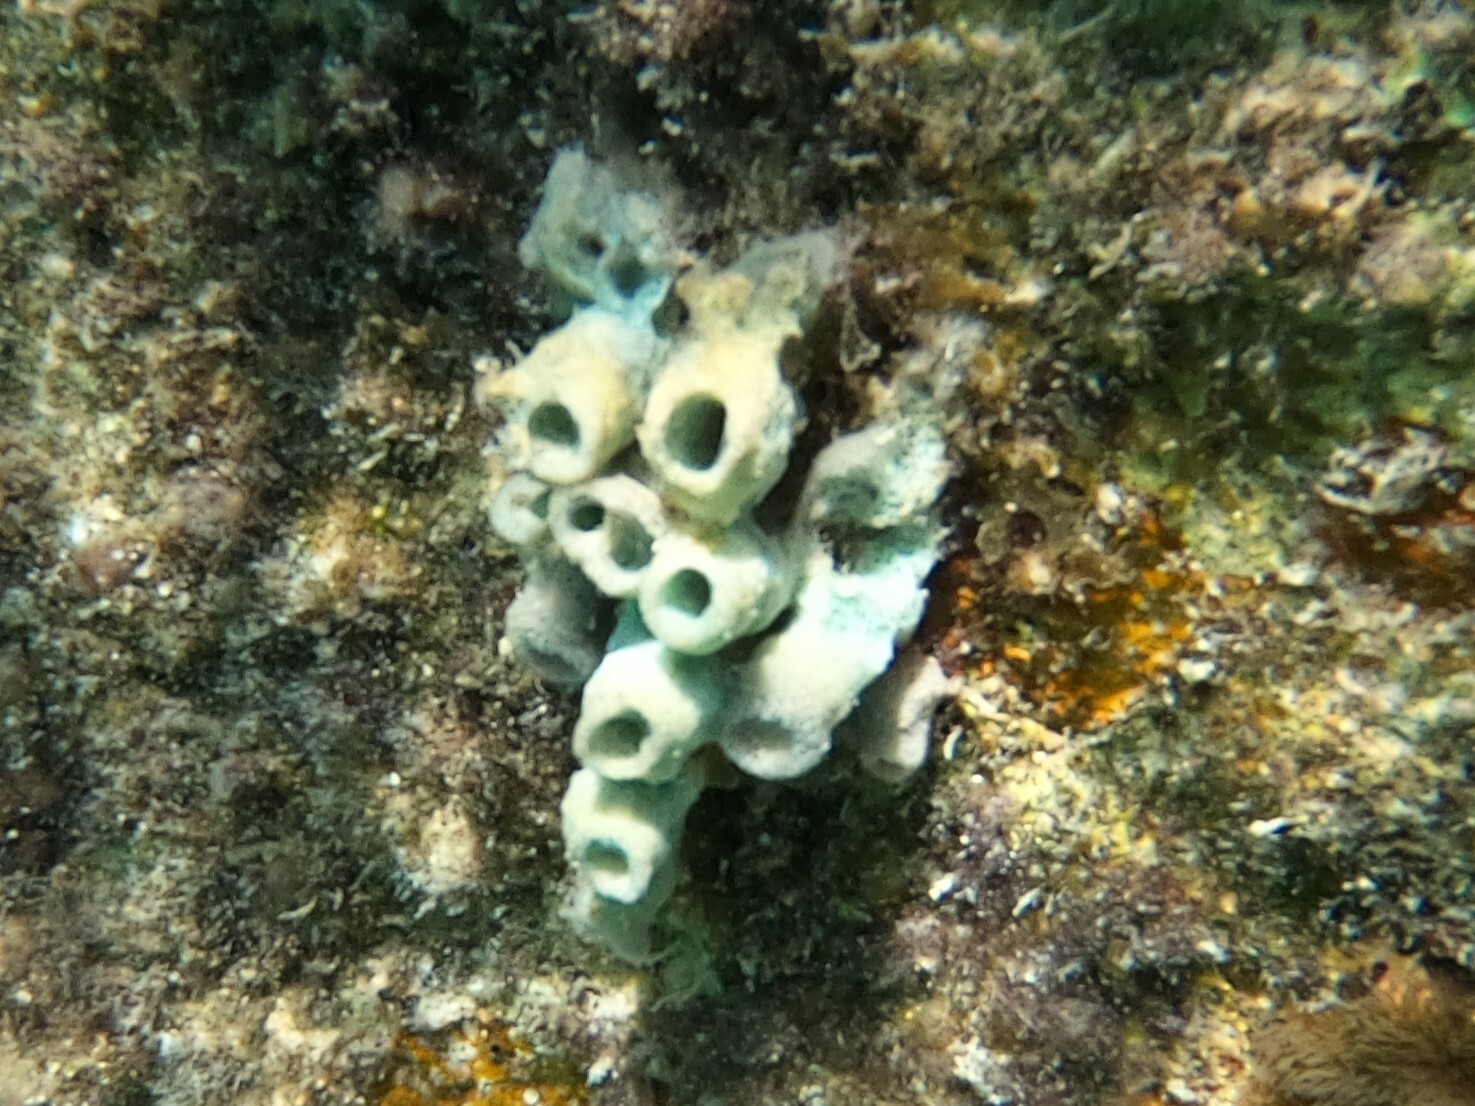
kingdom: Animalia
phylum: Porifera
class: Demospongiae
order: Dictyoceratida
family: Dysideidae
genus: Dysidea
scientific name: Dysidea janiae
